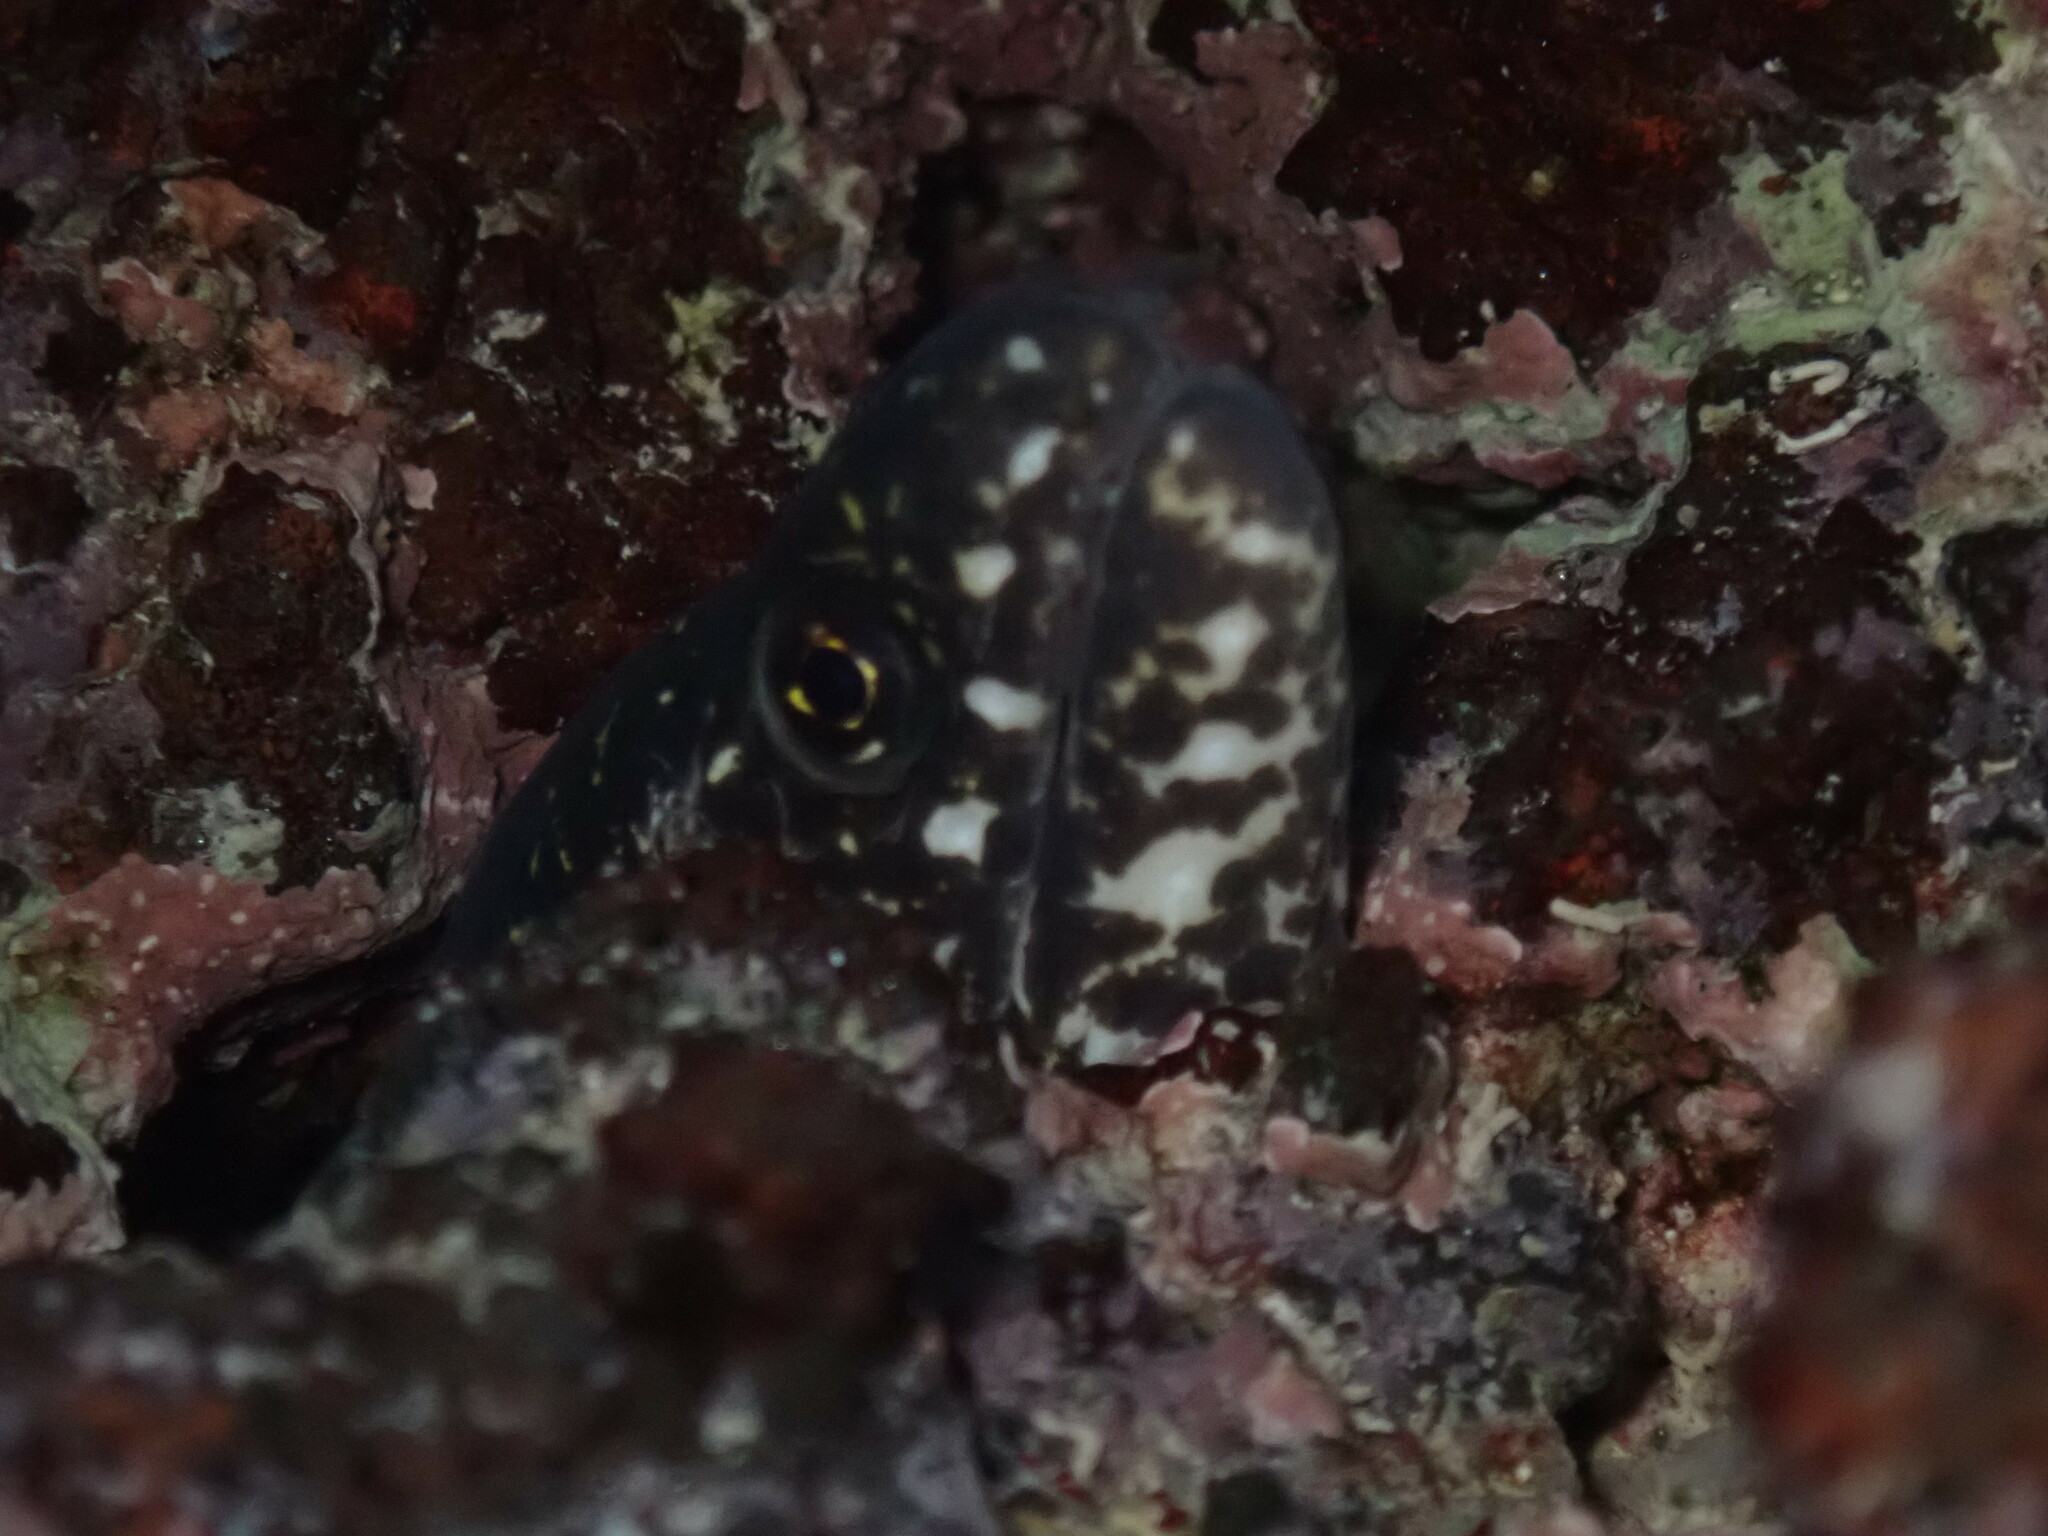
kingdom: Animalia
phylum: Chordata
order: Anguilliformes
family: Muraenidae
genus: Gymnothorax
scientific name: Gymnothorax pictus
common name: Peppered moray
